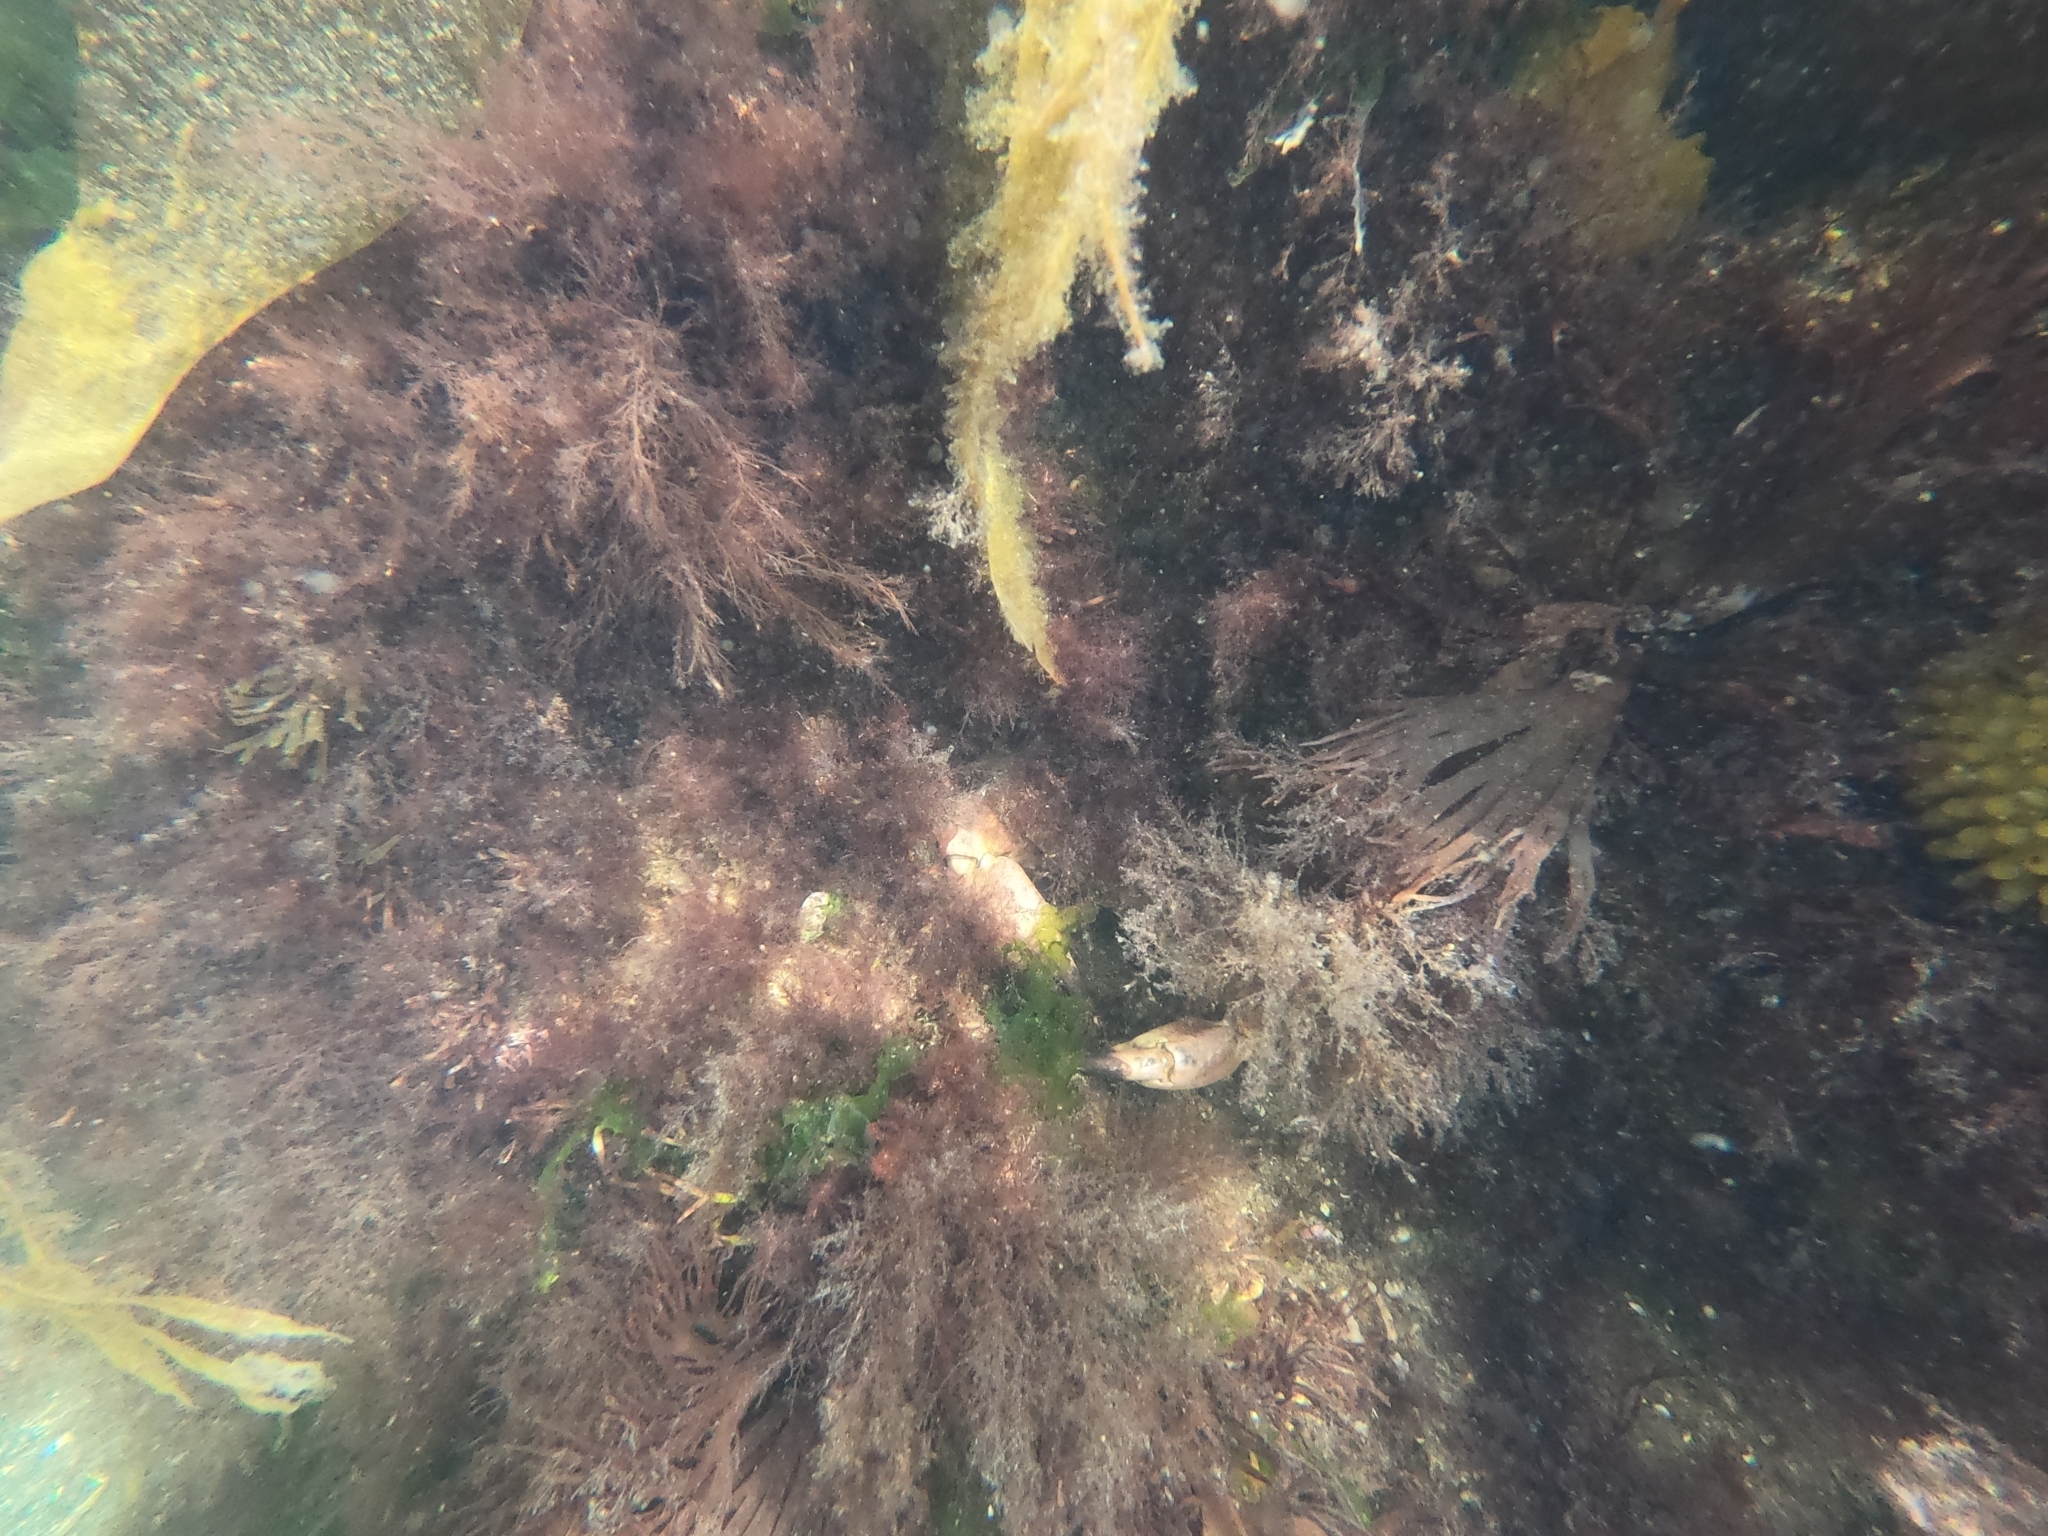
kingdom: Animalia
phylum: Arthropoda
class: Malacostraca
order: Decapoda
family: Cancridae
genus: Cancer
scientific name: Cancer pagurus
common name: Edible crab
